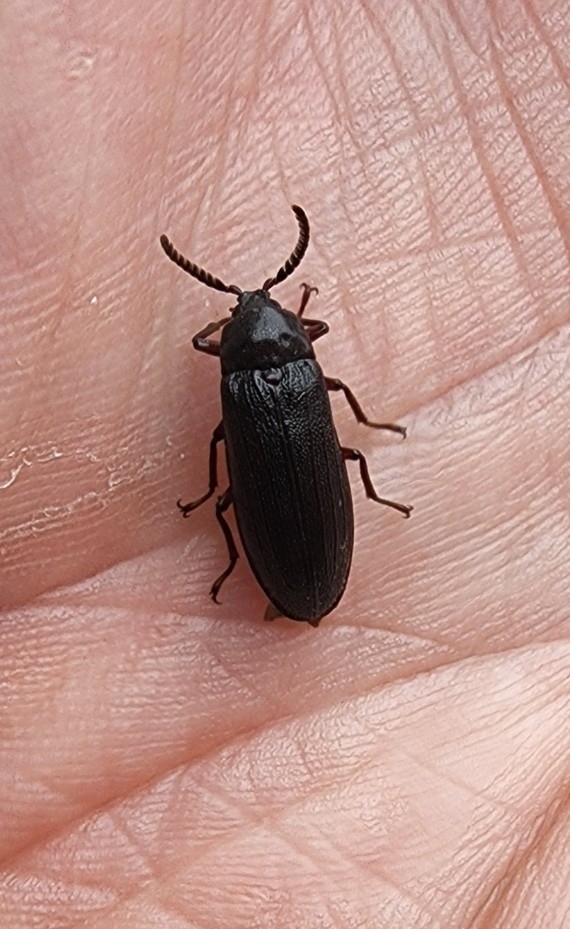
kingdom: Animalia
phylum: Arthropoda
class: Insecta
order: Coleoptera
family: Callirhipidae
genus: Zenoa
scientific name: Zenoa picea
